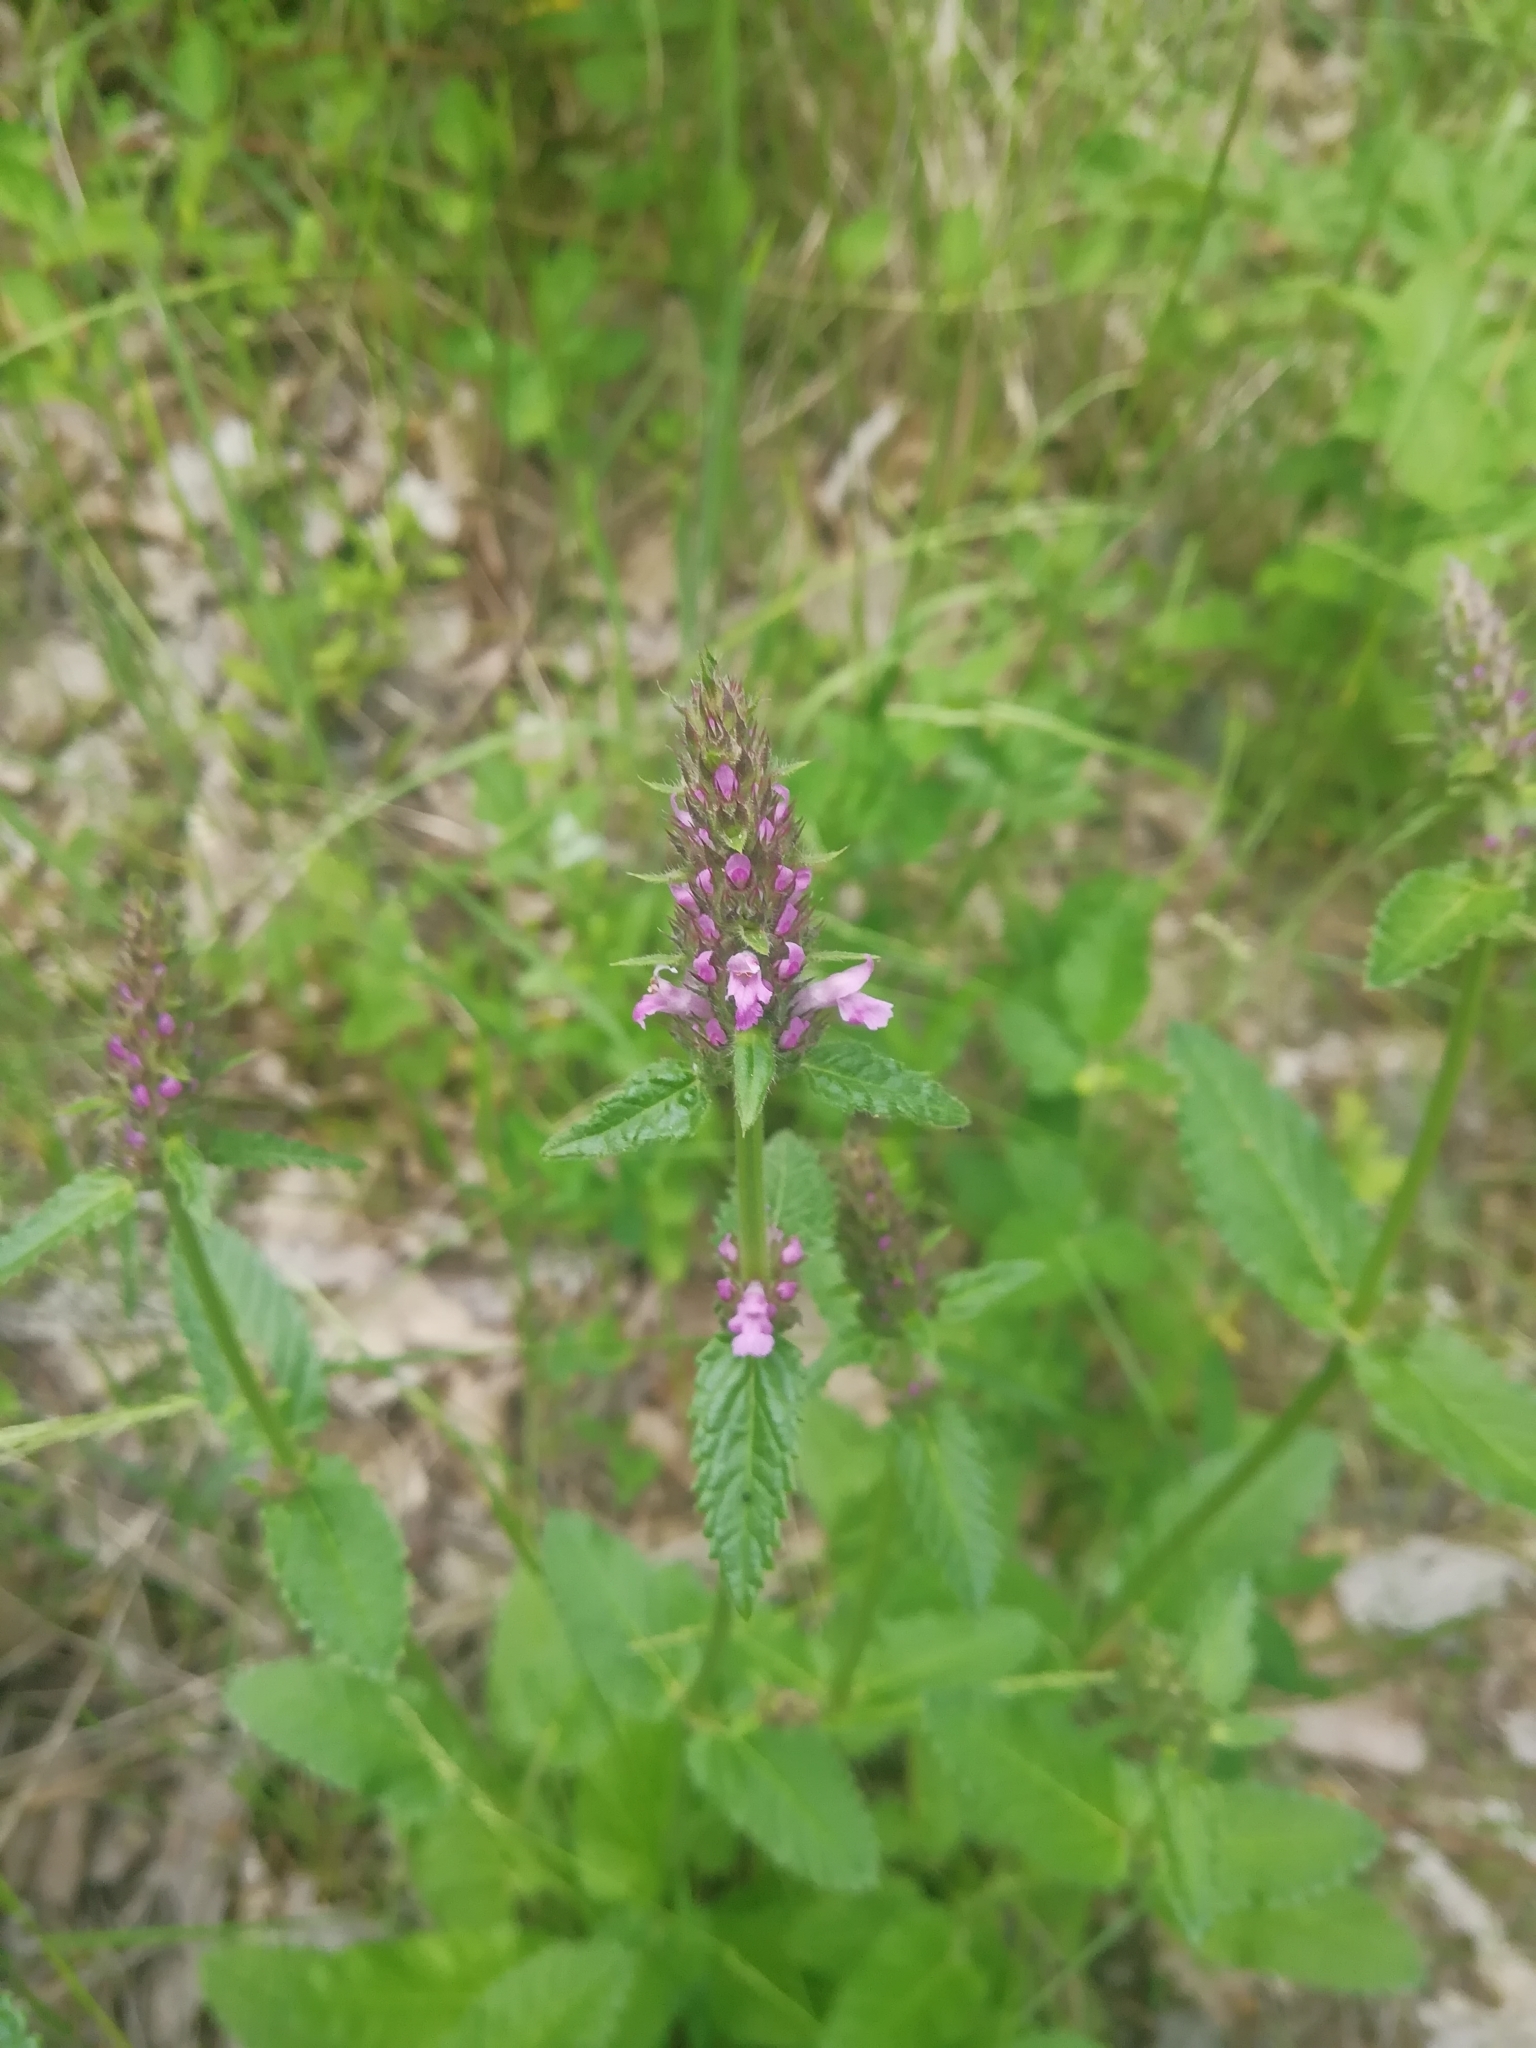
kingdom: Plantae
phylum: Tracheophyta
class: Magnoliopsida
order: Lamiales
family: Lamiaceae
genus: Betonica
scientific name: Betonica officinalis
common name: Bishop's-wort
